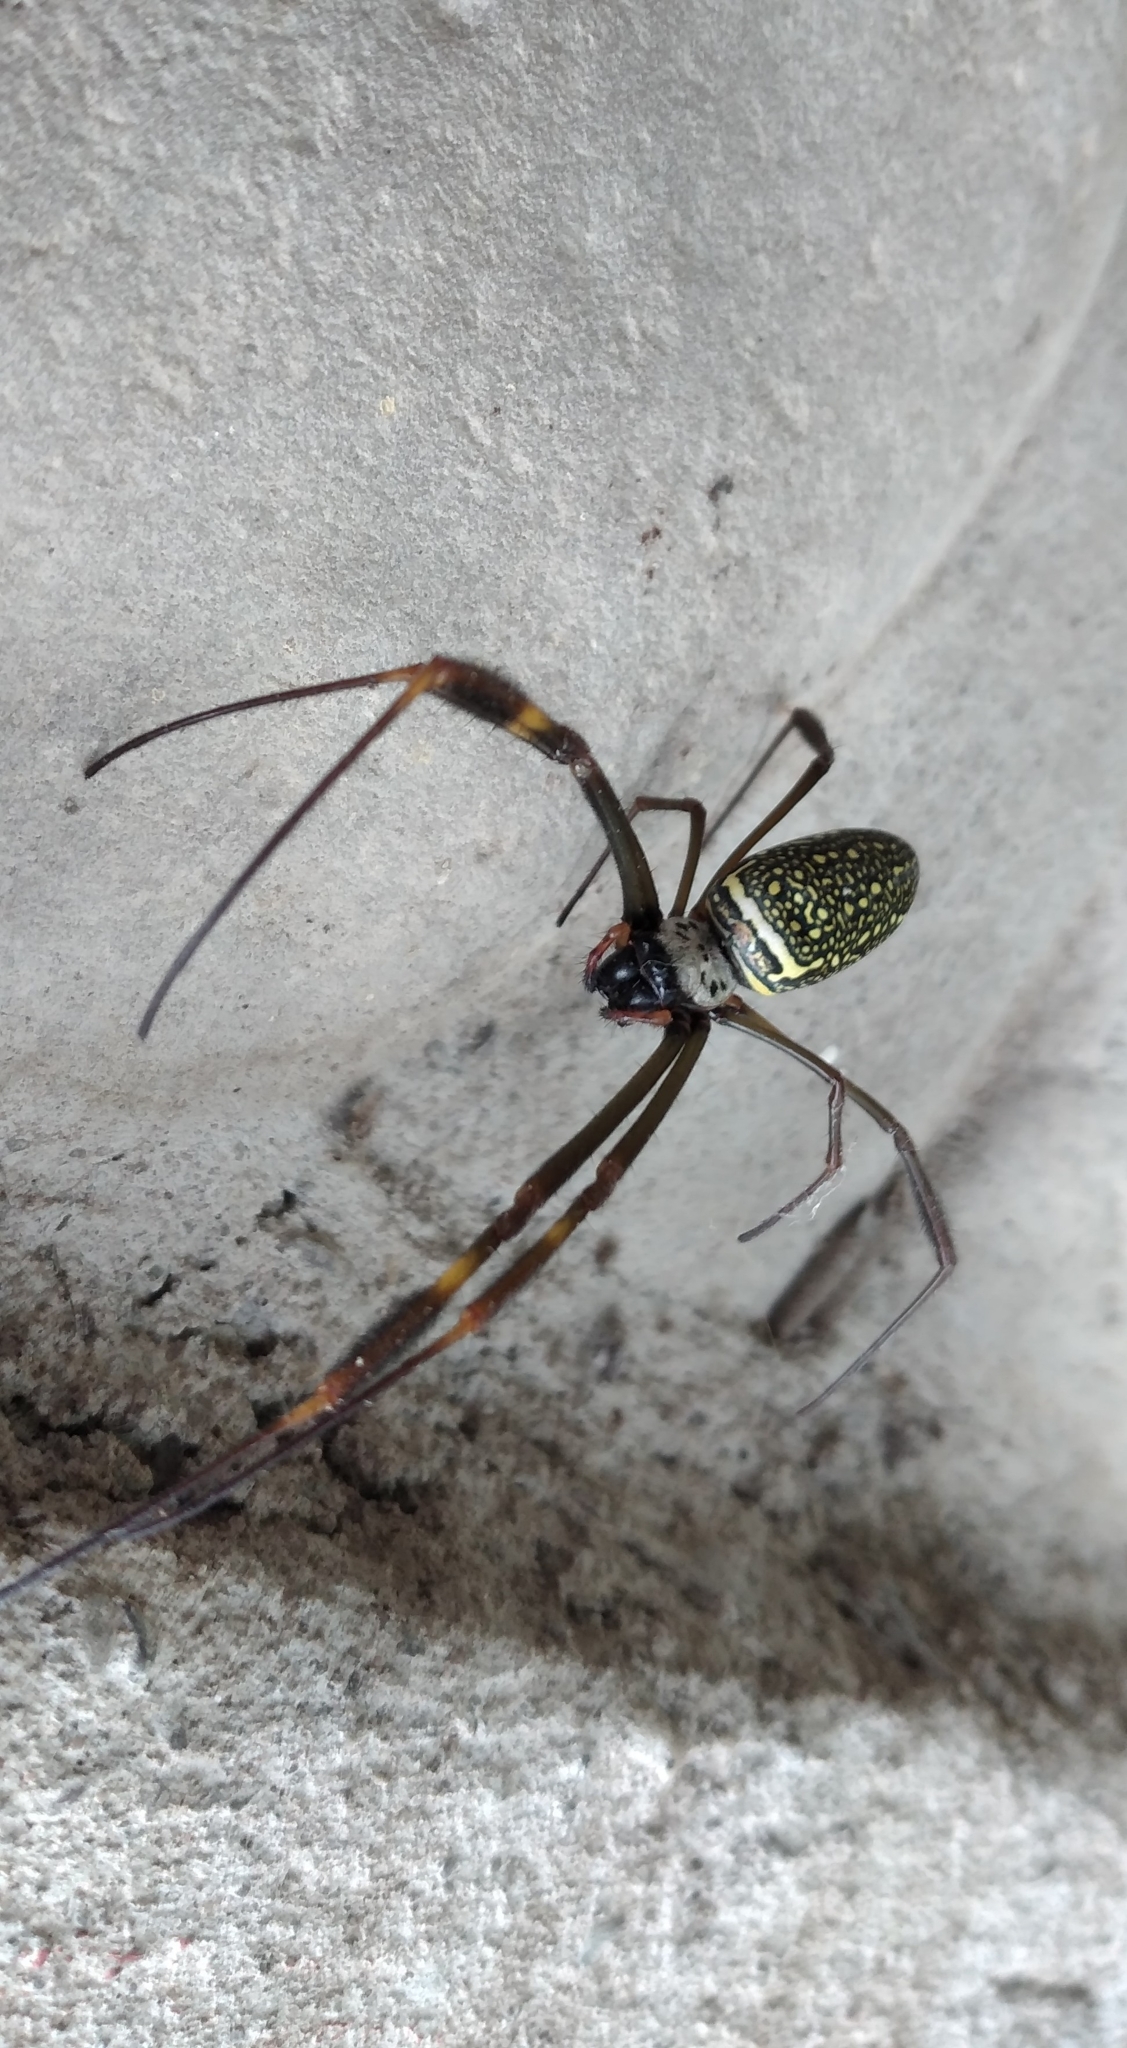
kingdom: Animalia
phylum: Arthropoda
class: Arachnida
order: Araneae
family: Araneidae
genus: Trichonephila
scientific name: Trichonephila clavipes
